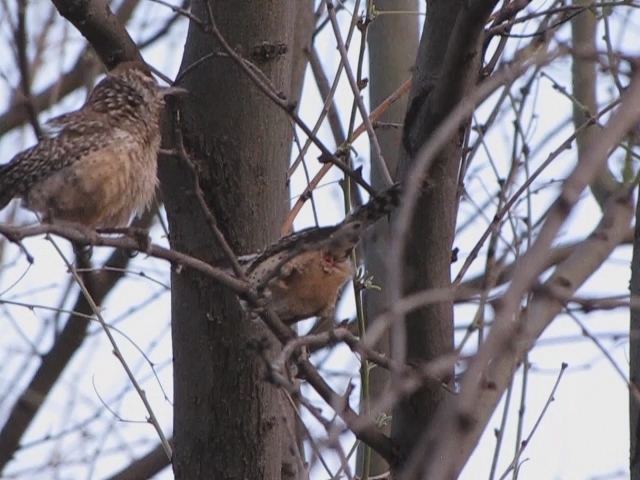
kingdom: Animalia
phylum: Chordata
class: Aves
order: Passeriformes
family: Troglodytidae
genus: Campylorhynchus
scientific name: Campylorhynchus brunneicapillus
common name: Cactus wren
